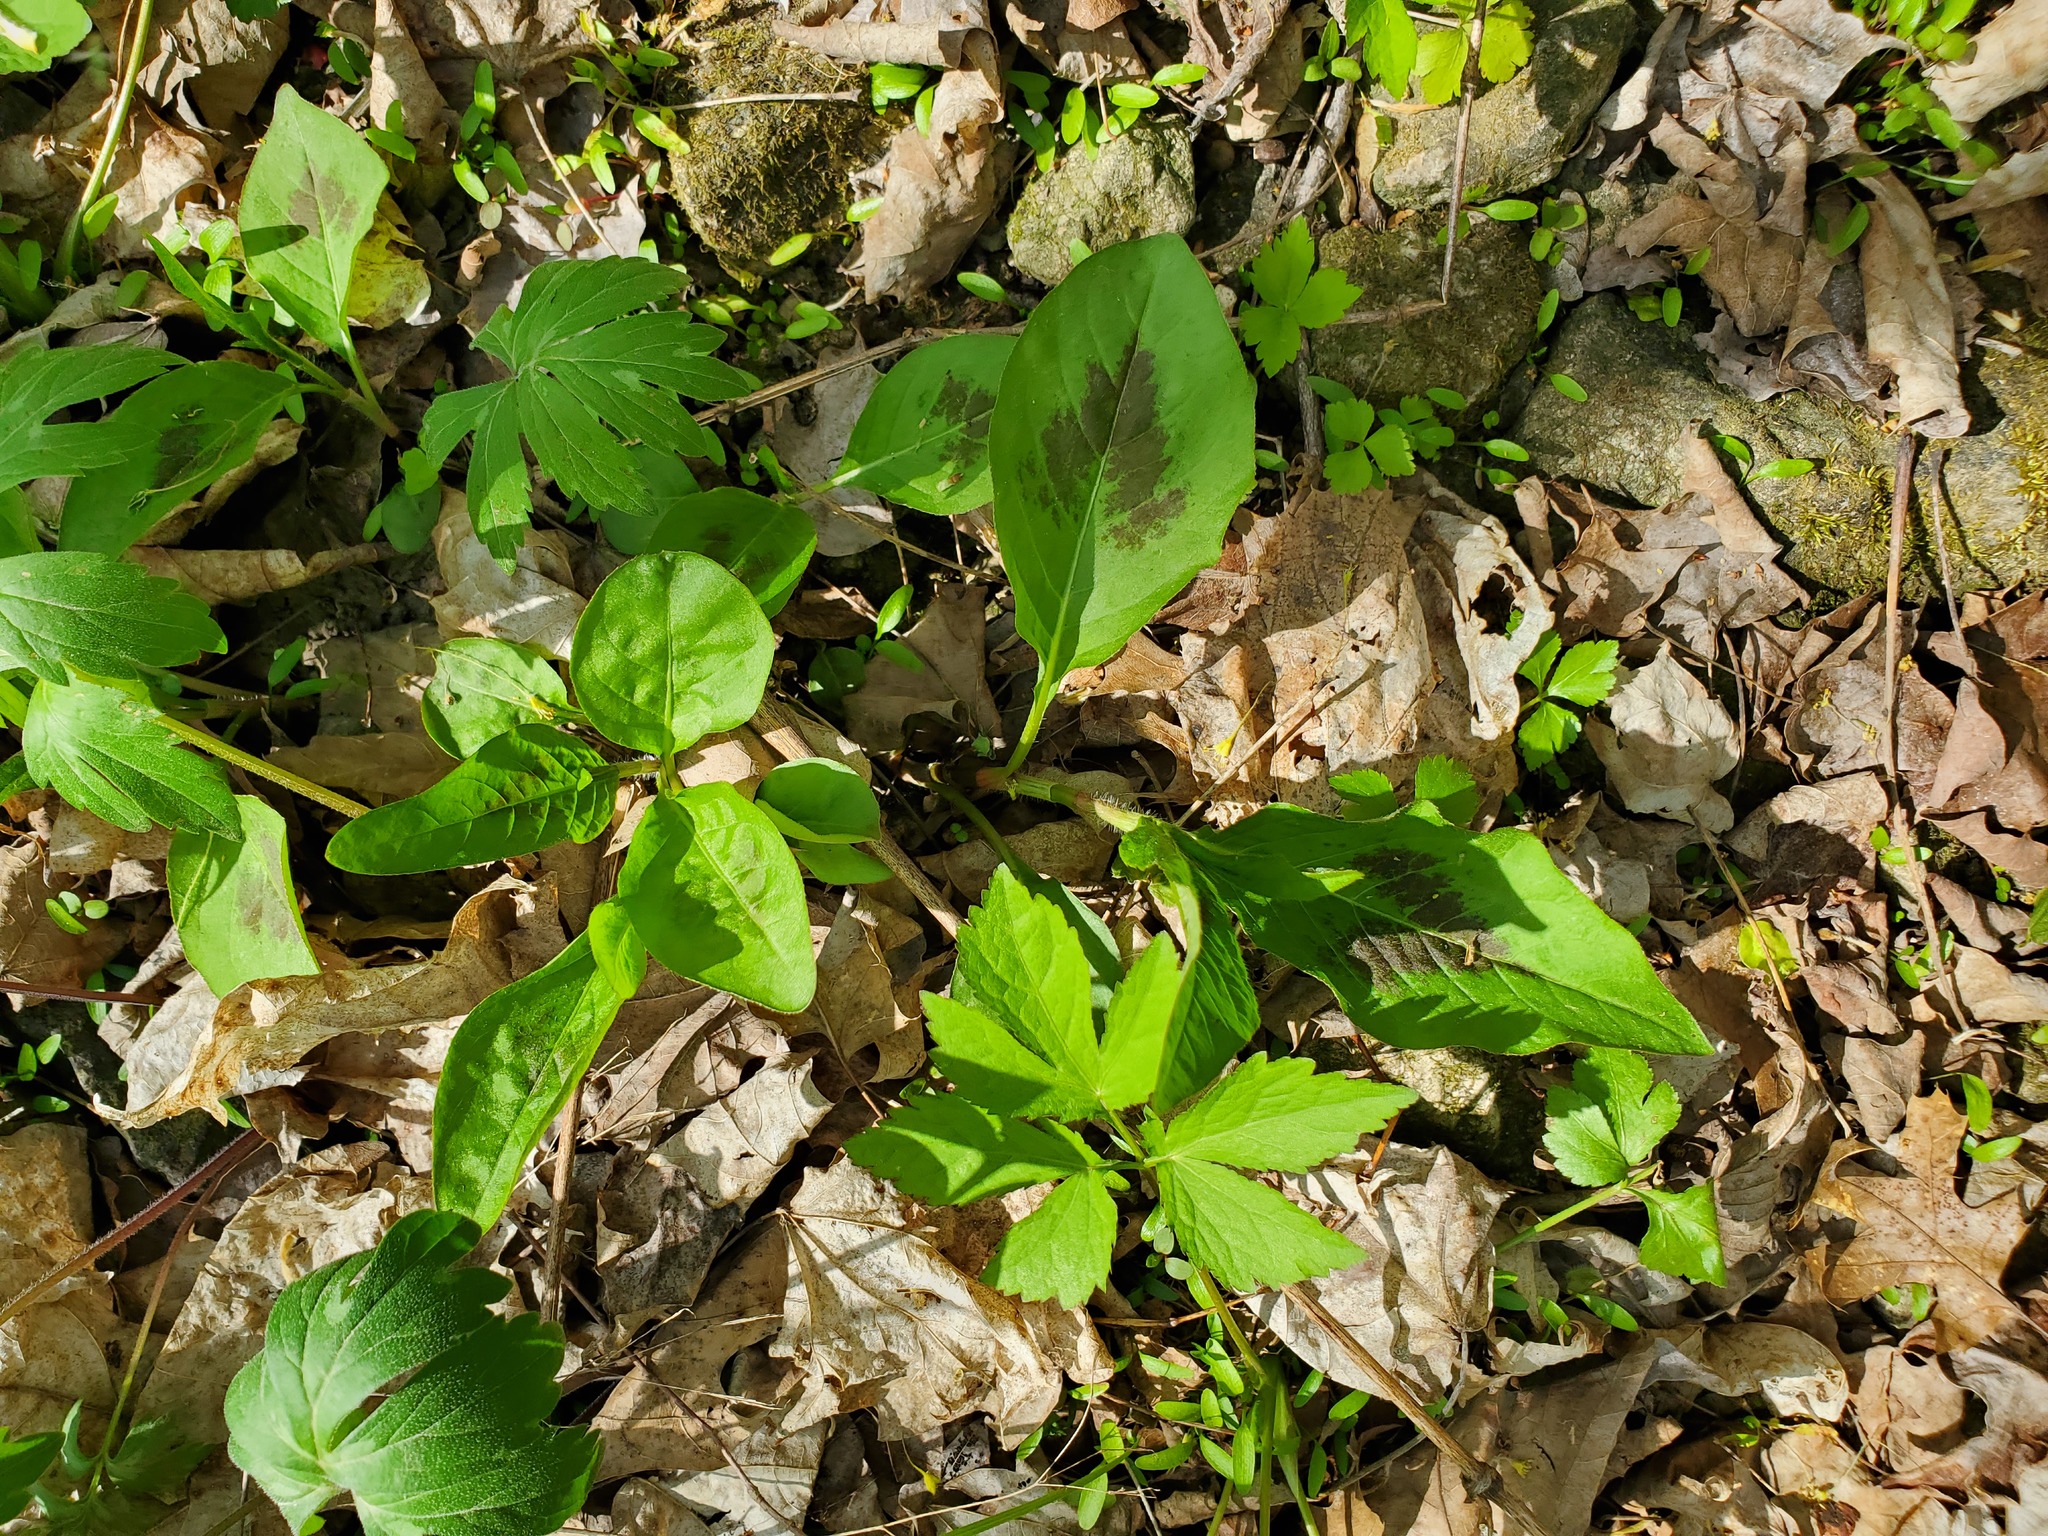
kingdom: Plantae
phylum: Tracheophyta
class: Magnoliopsida
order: Caryophyllales
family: Polygonaceae
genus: Persicaria
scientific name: Persicaria virginiana
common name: Jumpseed
